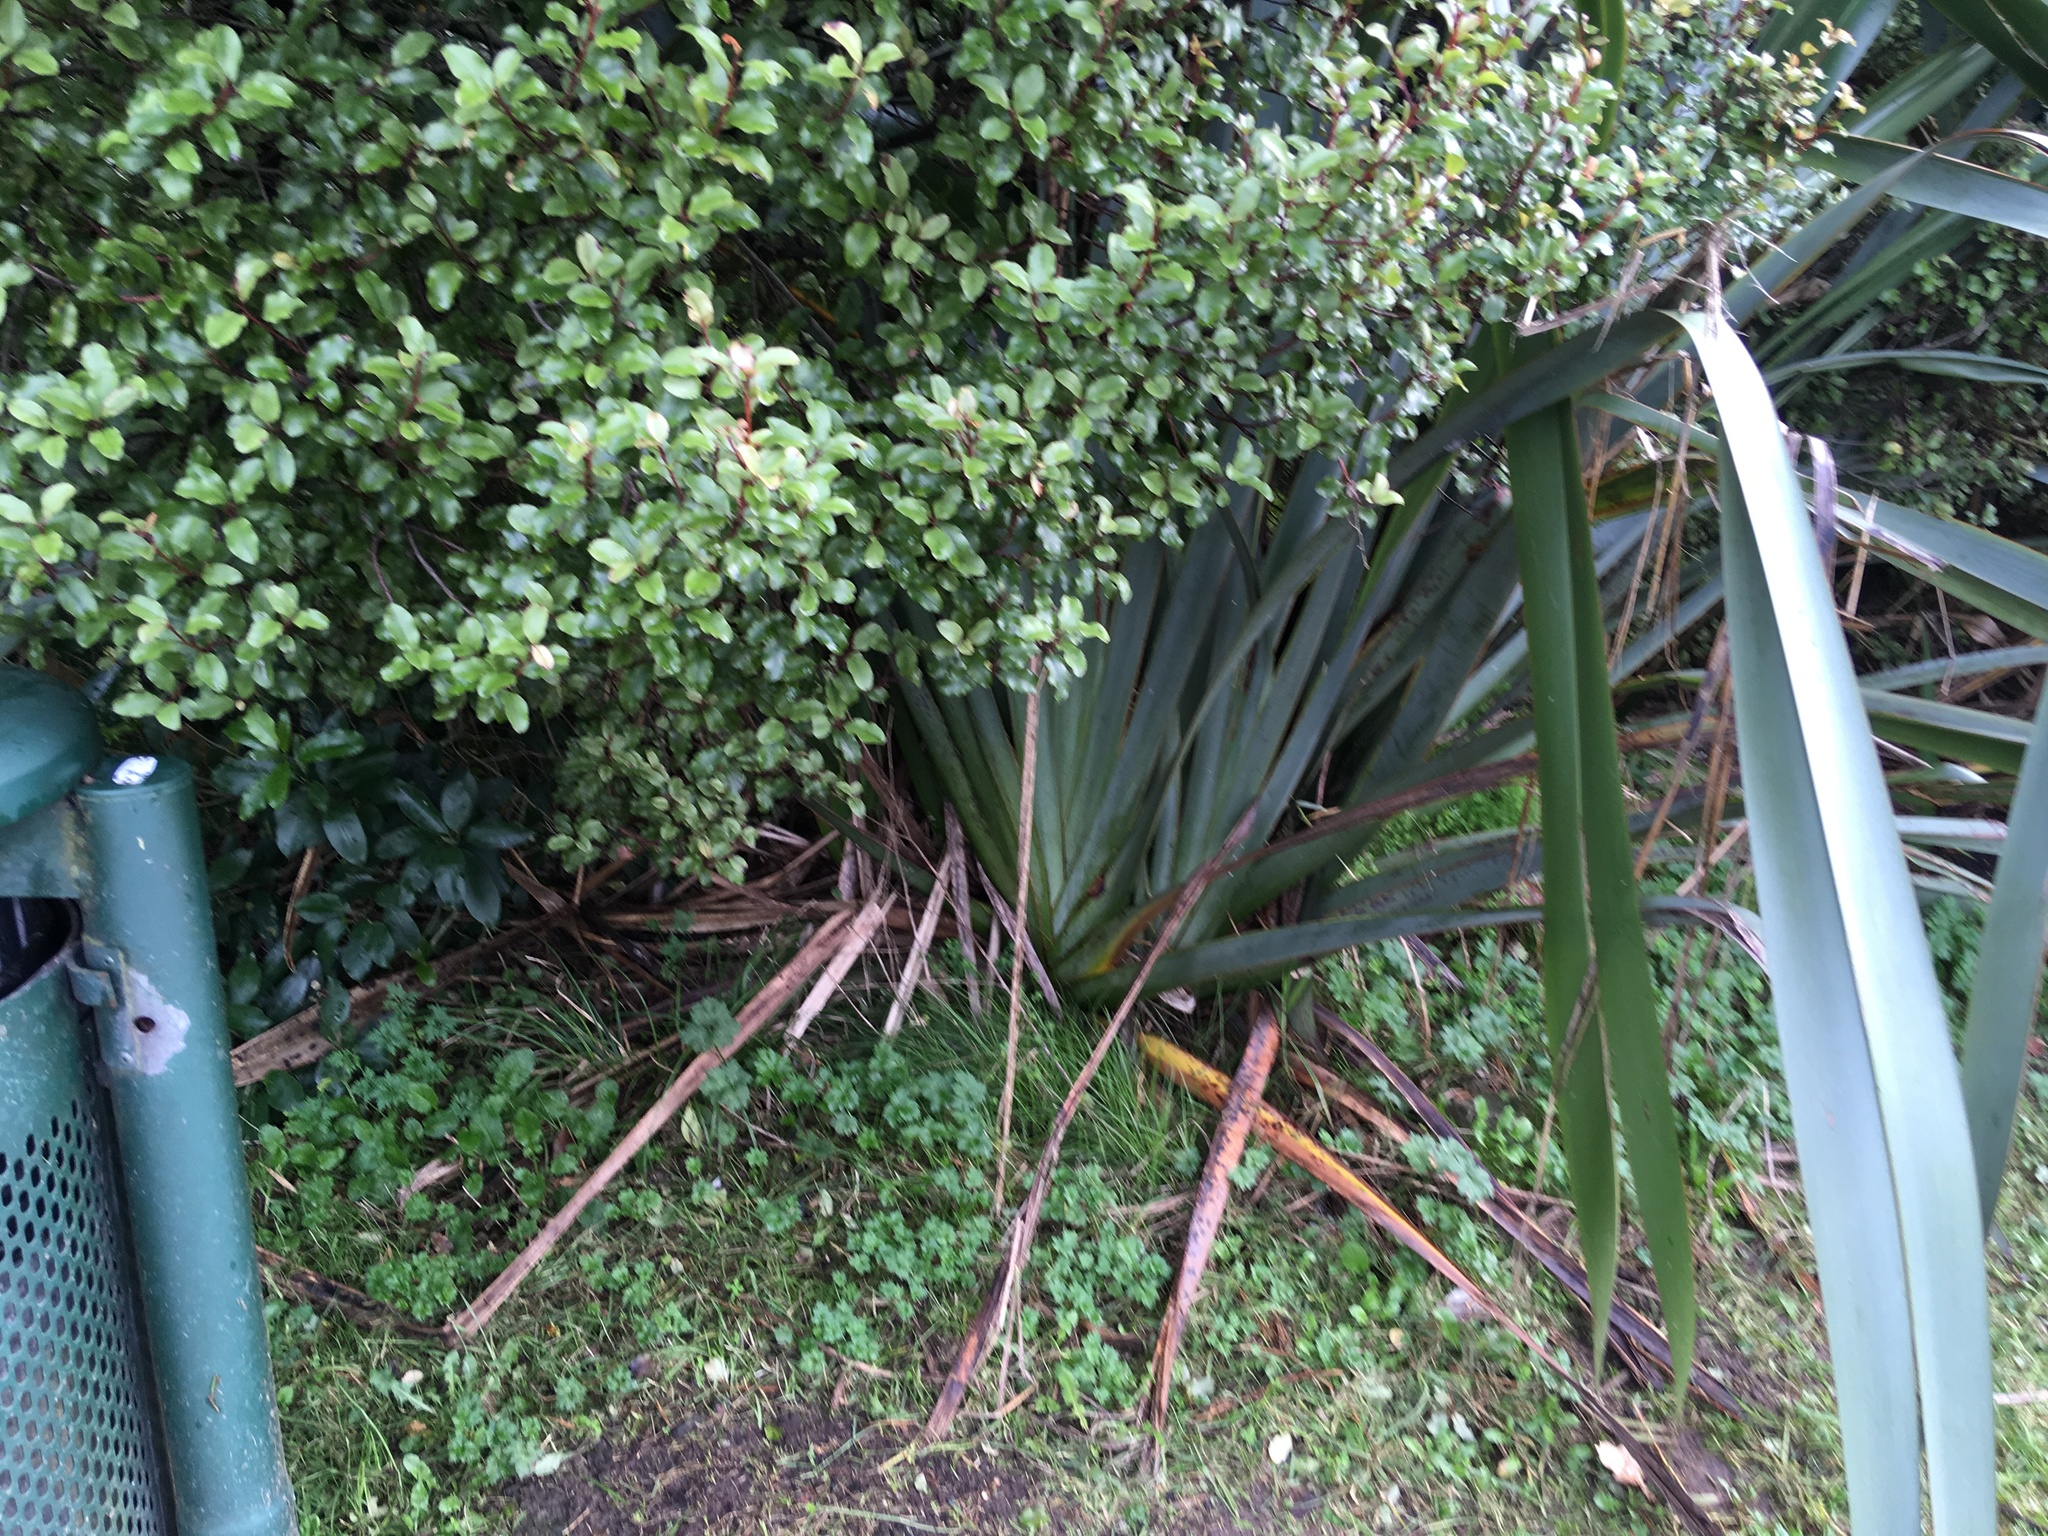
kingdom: Plantae
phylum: Tracheophyta
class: Liliopsida
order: Asparagales
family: Asphodelaceae
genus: Phormium
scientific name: Phormium tenax
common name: New zealand flax
